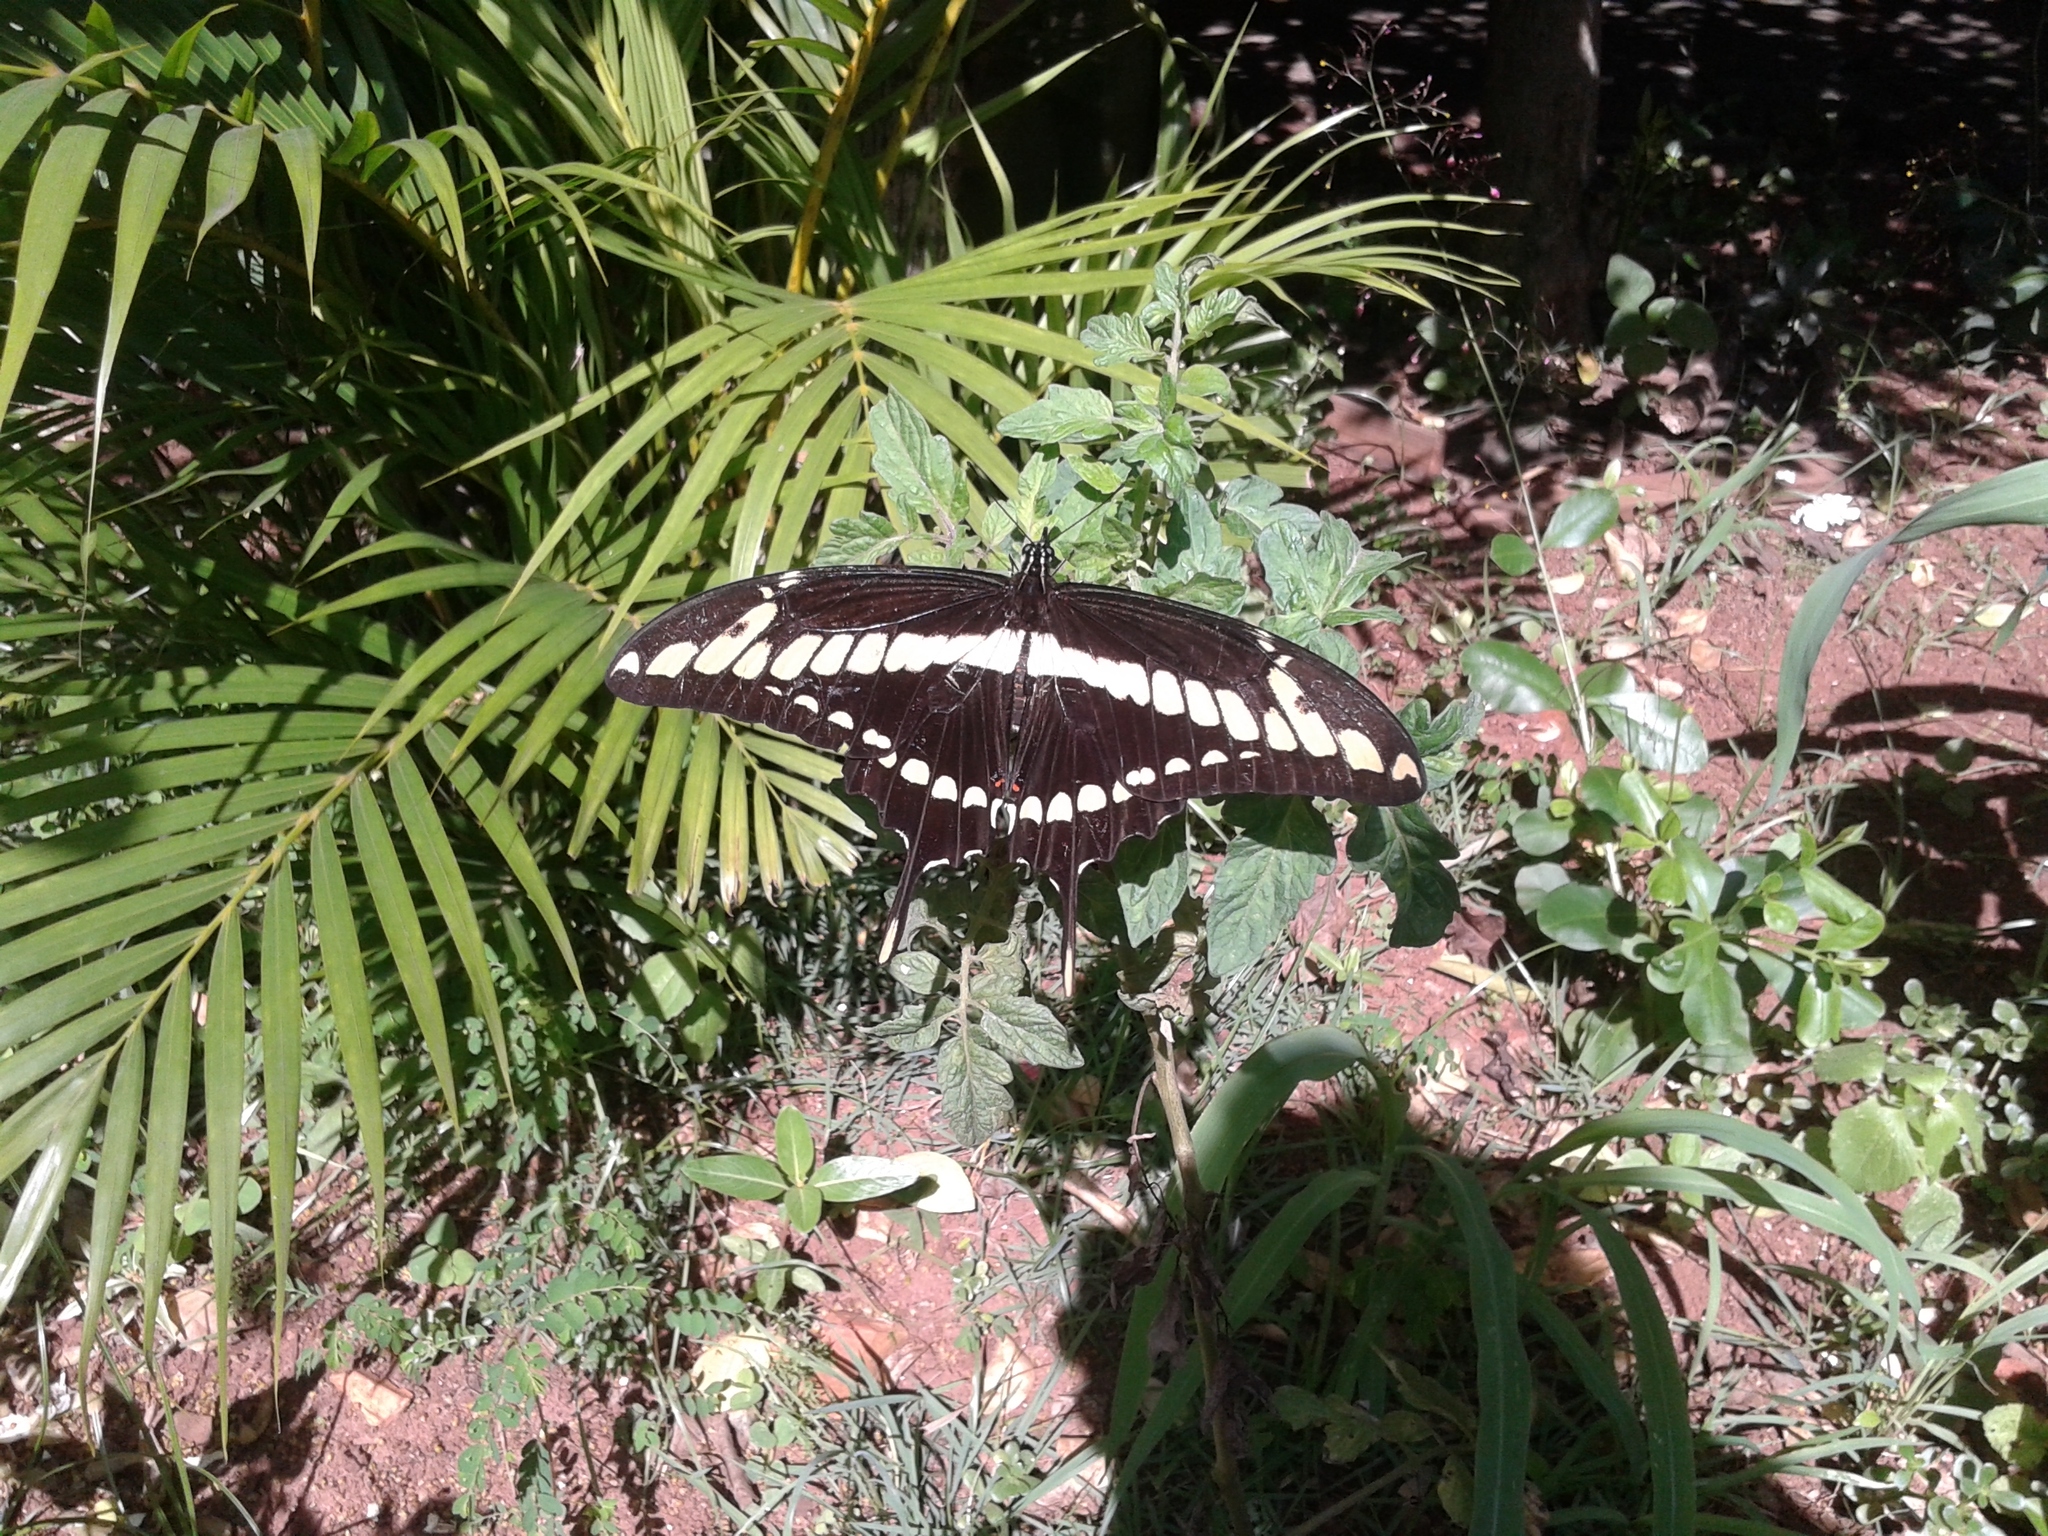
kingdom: Animalia
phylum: Arthropoda
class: Insecta
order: Lepidoptera
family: Papilionidae
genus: Papilio
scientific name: Papilio thoas
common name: King swallowtail
